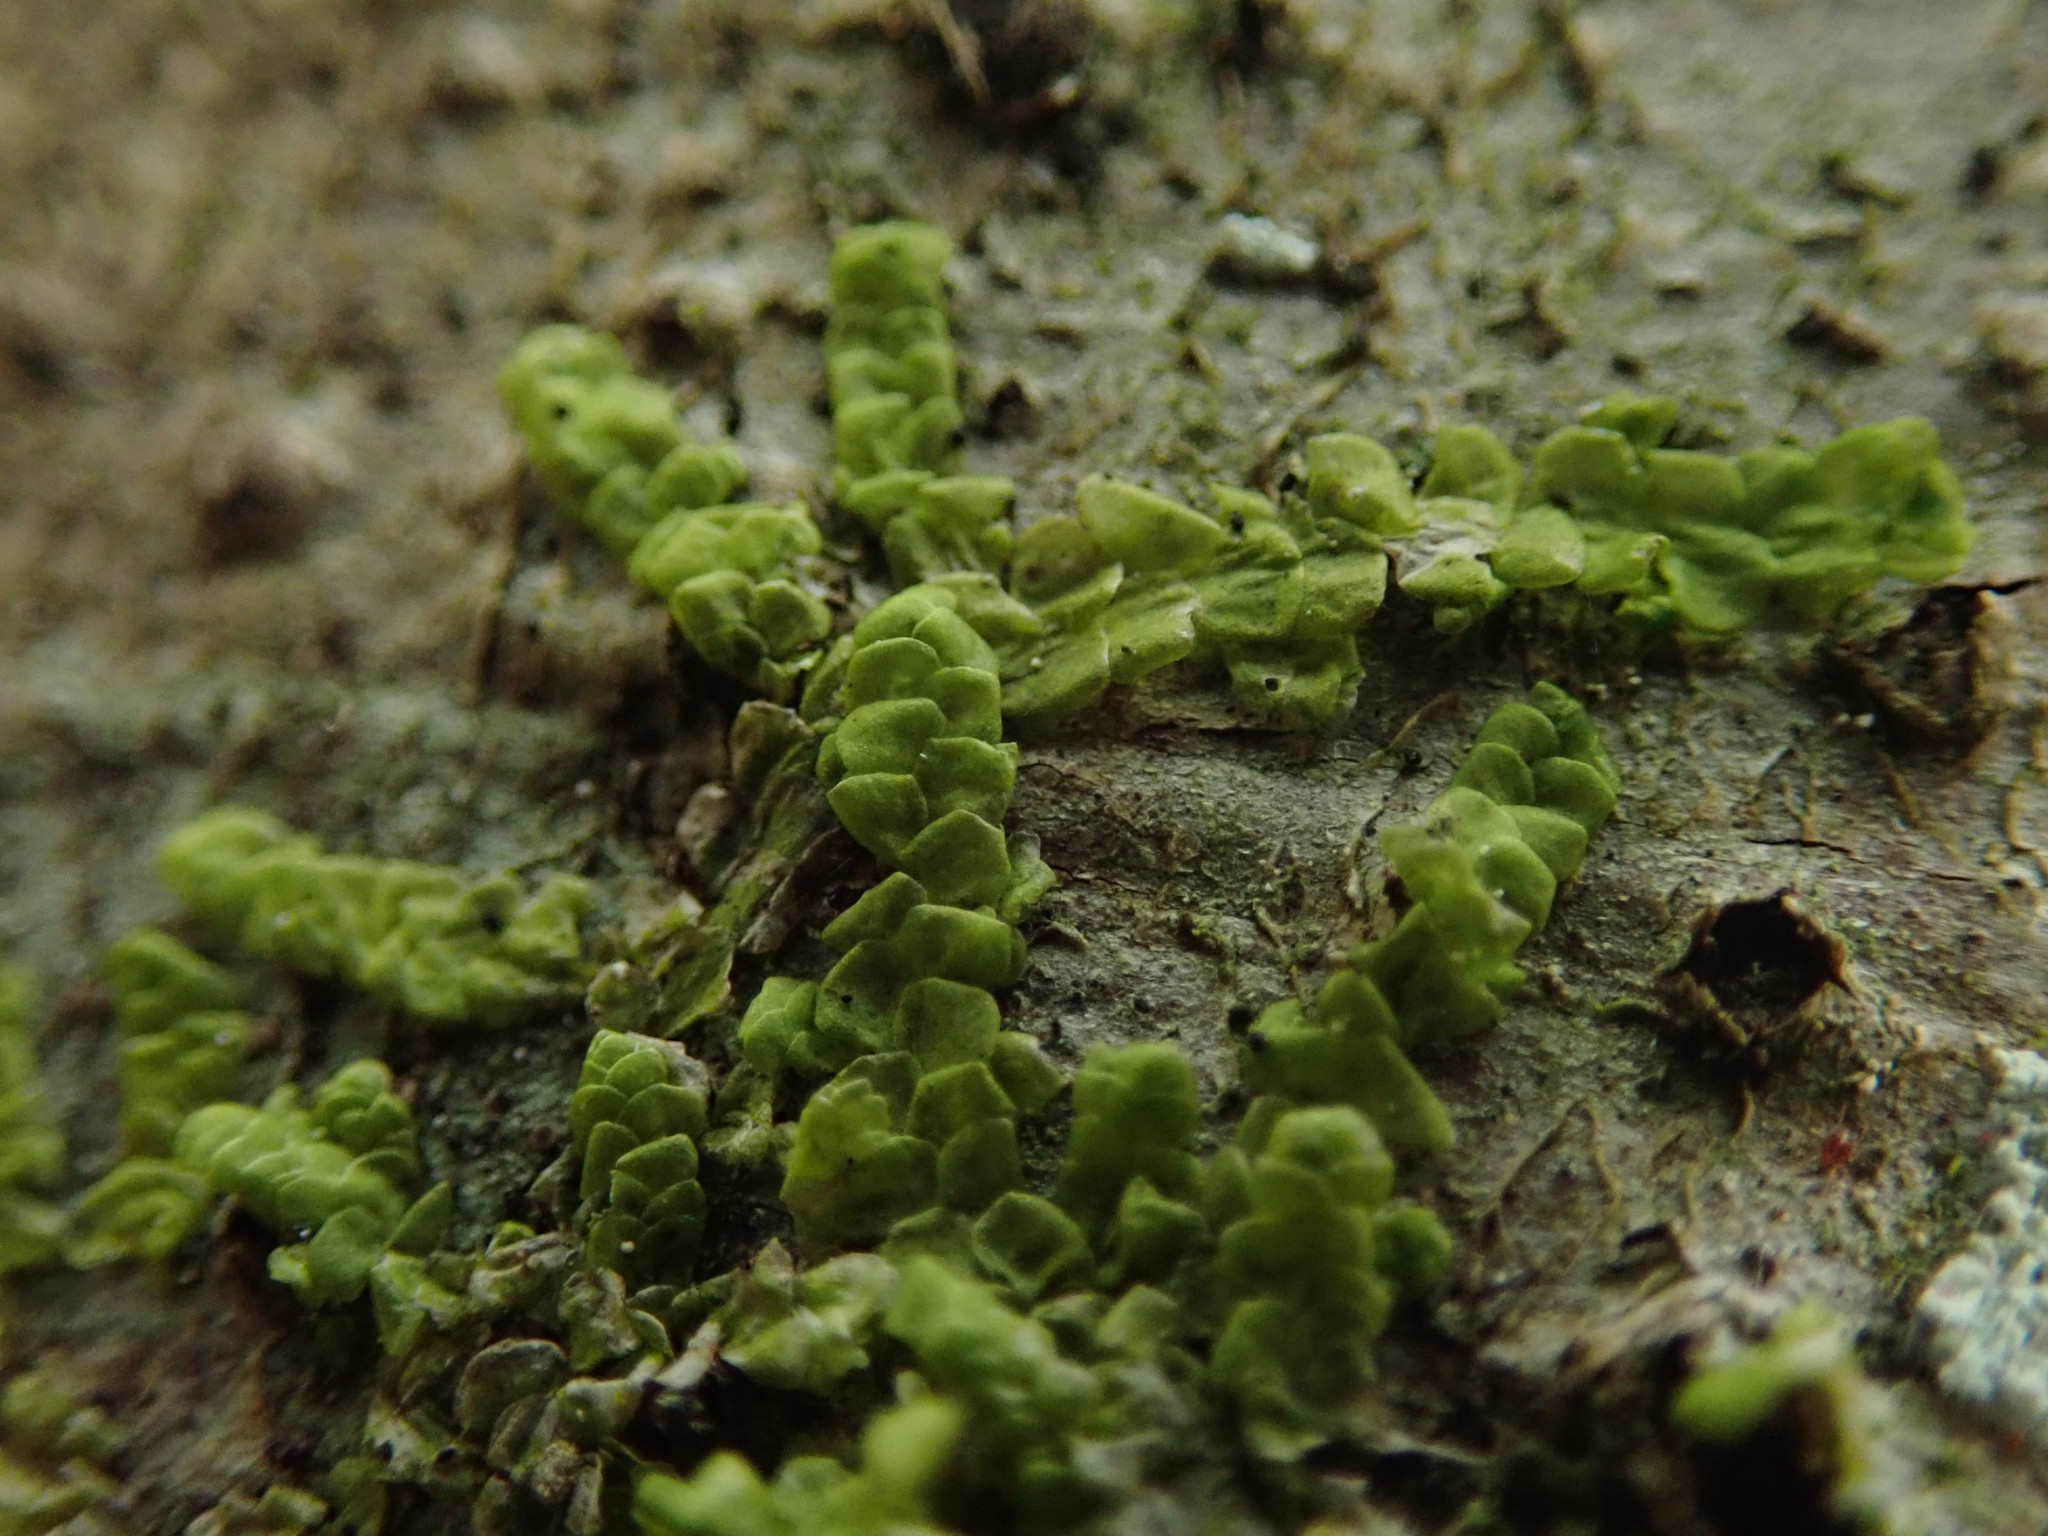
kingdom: Plantae
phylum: Marchantiophyta
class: Jungermanniopsida
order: Porellales
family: Radulaceae
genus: Radula
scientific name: Radula complanata
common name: Flat-leaved scalewort
